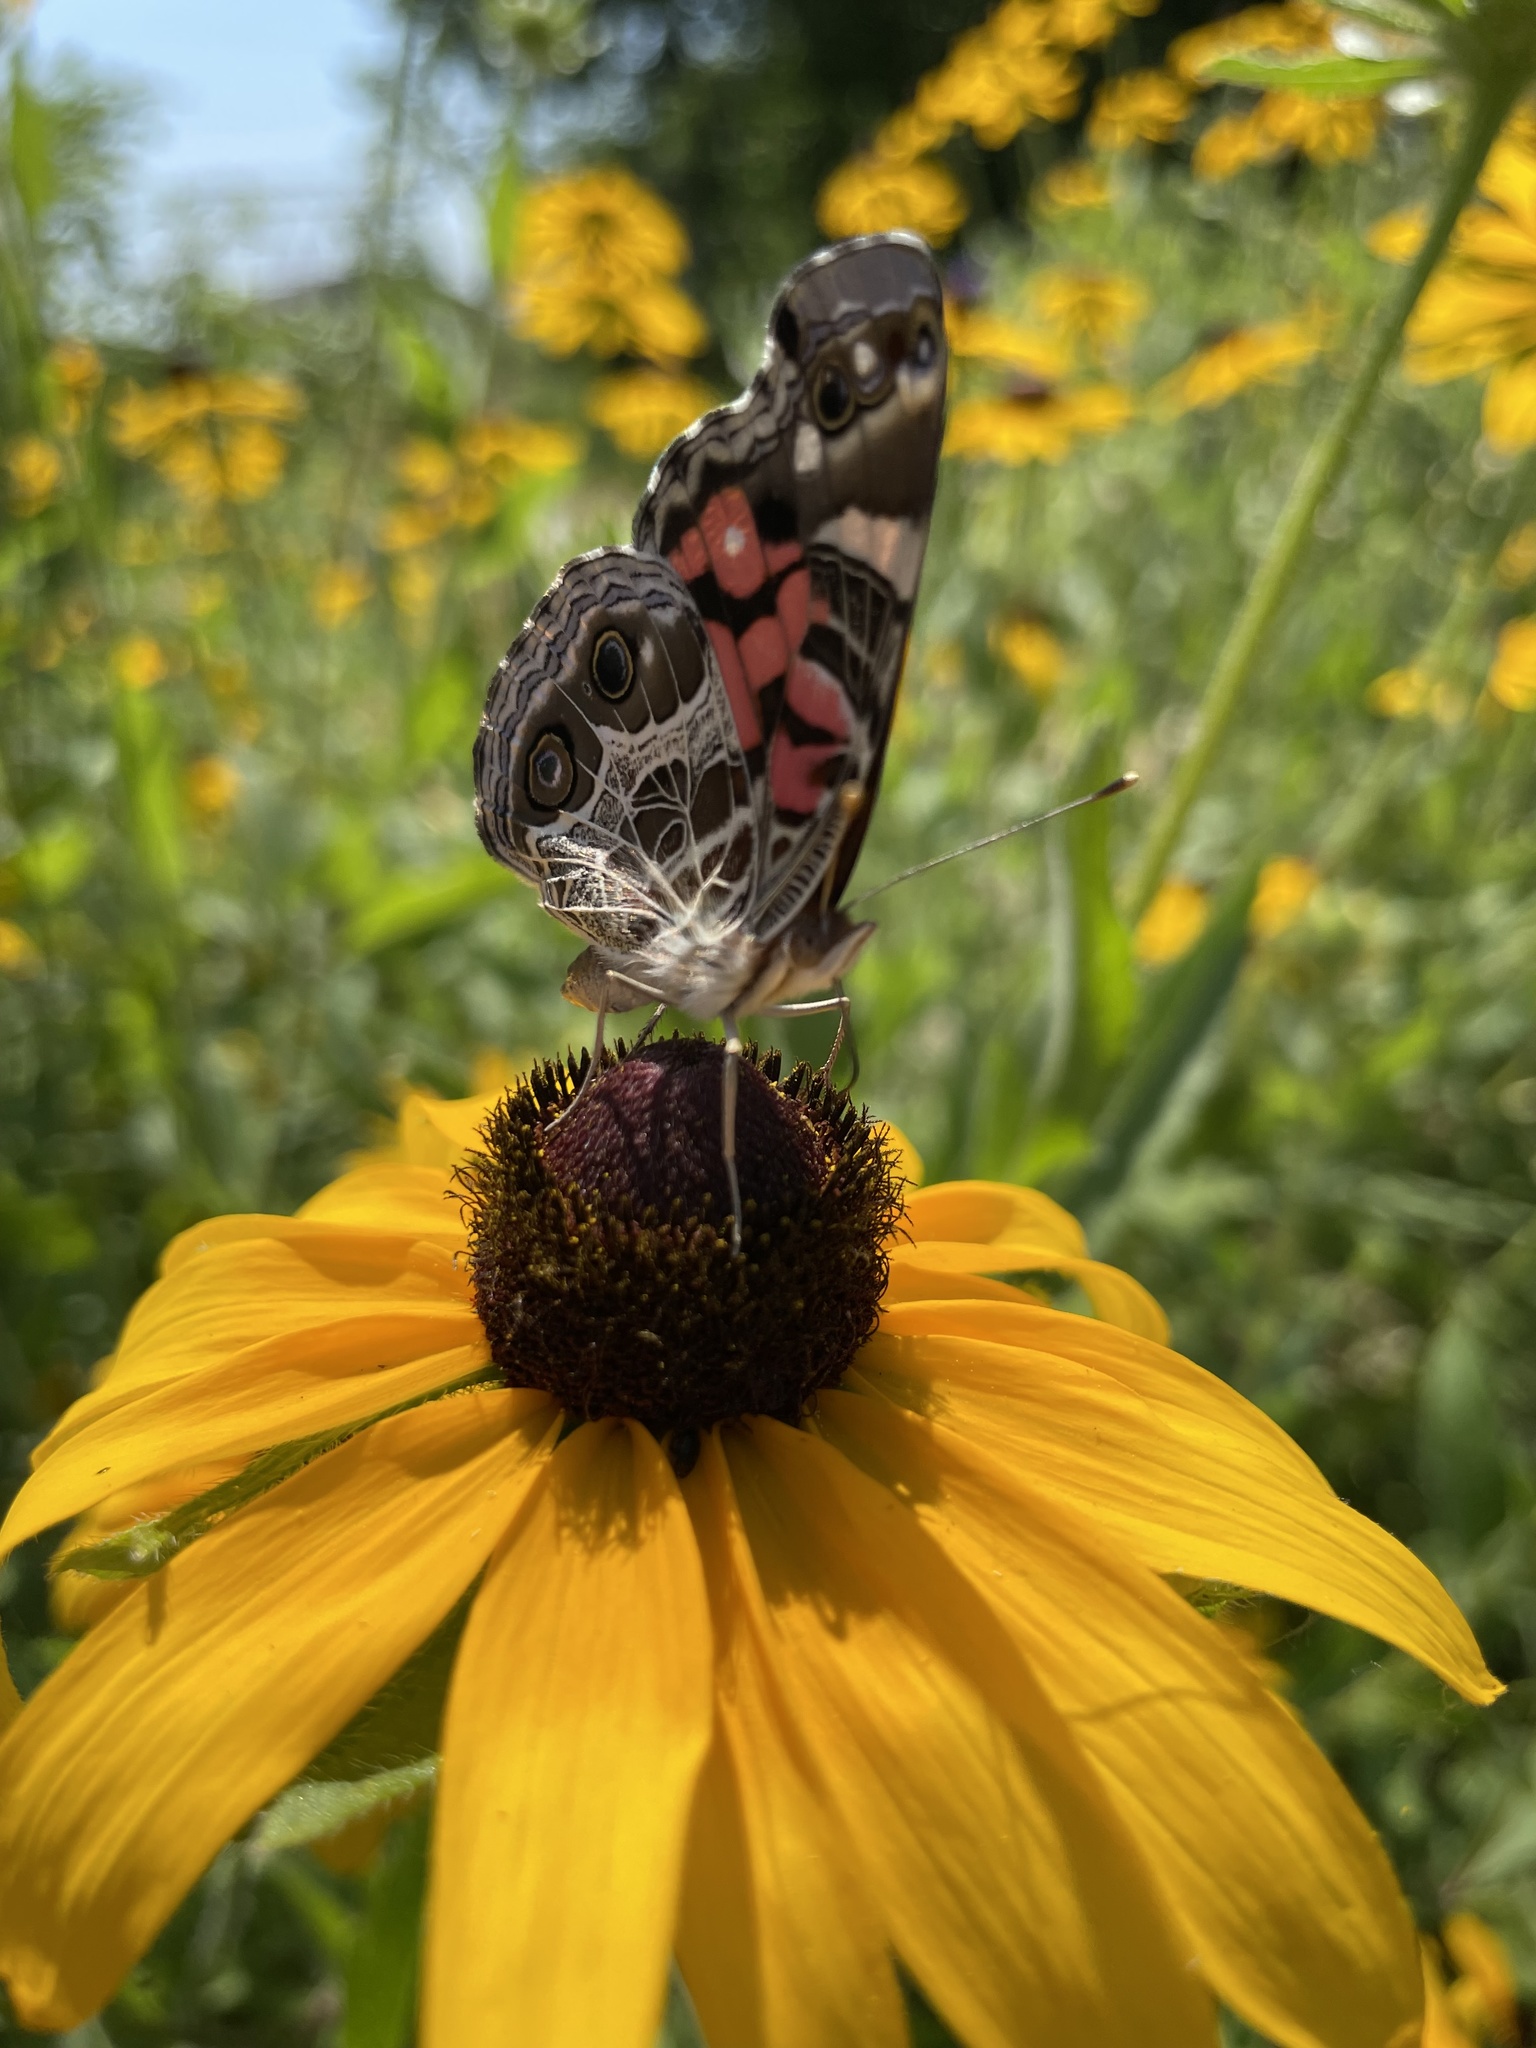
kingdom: Animalia
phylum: Arthropoda
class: Insecta
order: Lepidoptera
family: Nymphalidae
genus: Vanessa
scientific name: Vanessa virginiensis
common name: American lady
